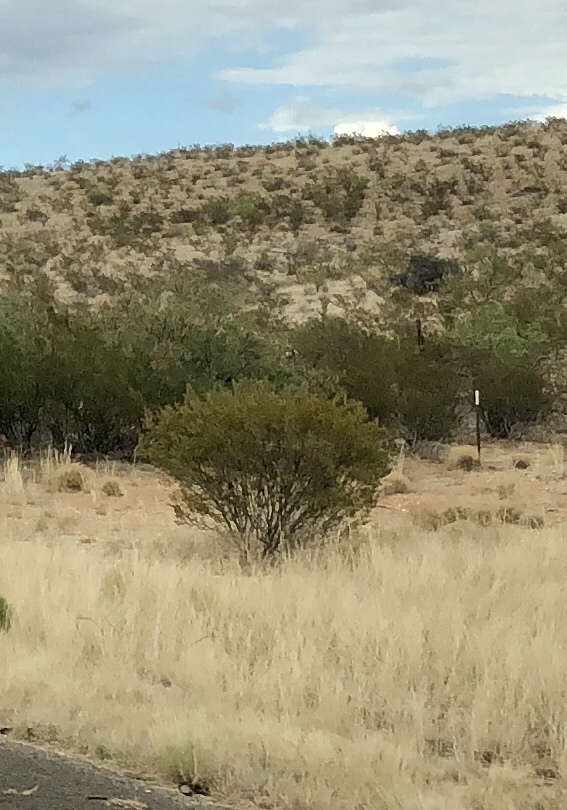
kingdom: Plantae
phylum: Tracheophyta
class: Magnoliopsida
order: Zygophyllales
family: Zygophyllaceae
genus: Larrea
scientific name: Larrea tridentata
